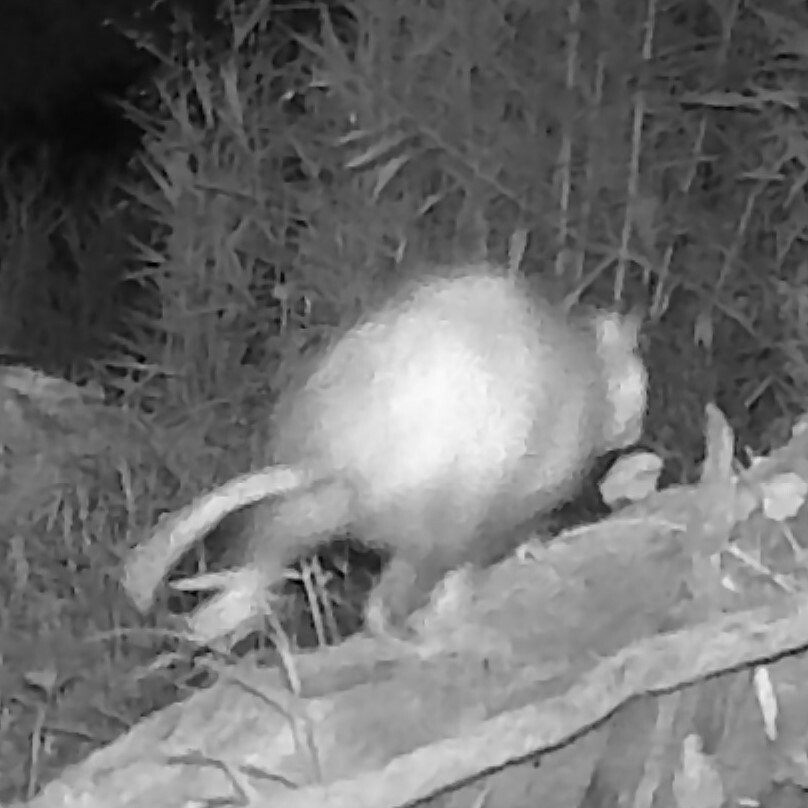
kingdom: Animalia
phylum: Chordata
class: Mammalia
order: Didelphimorphia
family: Didelphidae
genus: Didelphis
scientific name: Didelphis virginiana
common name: Virginia opossum
